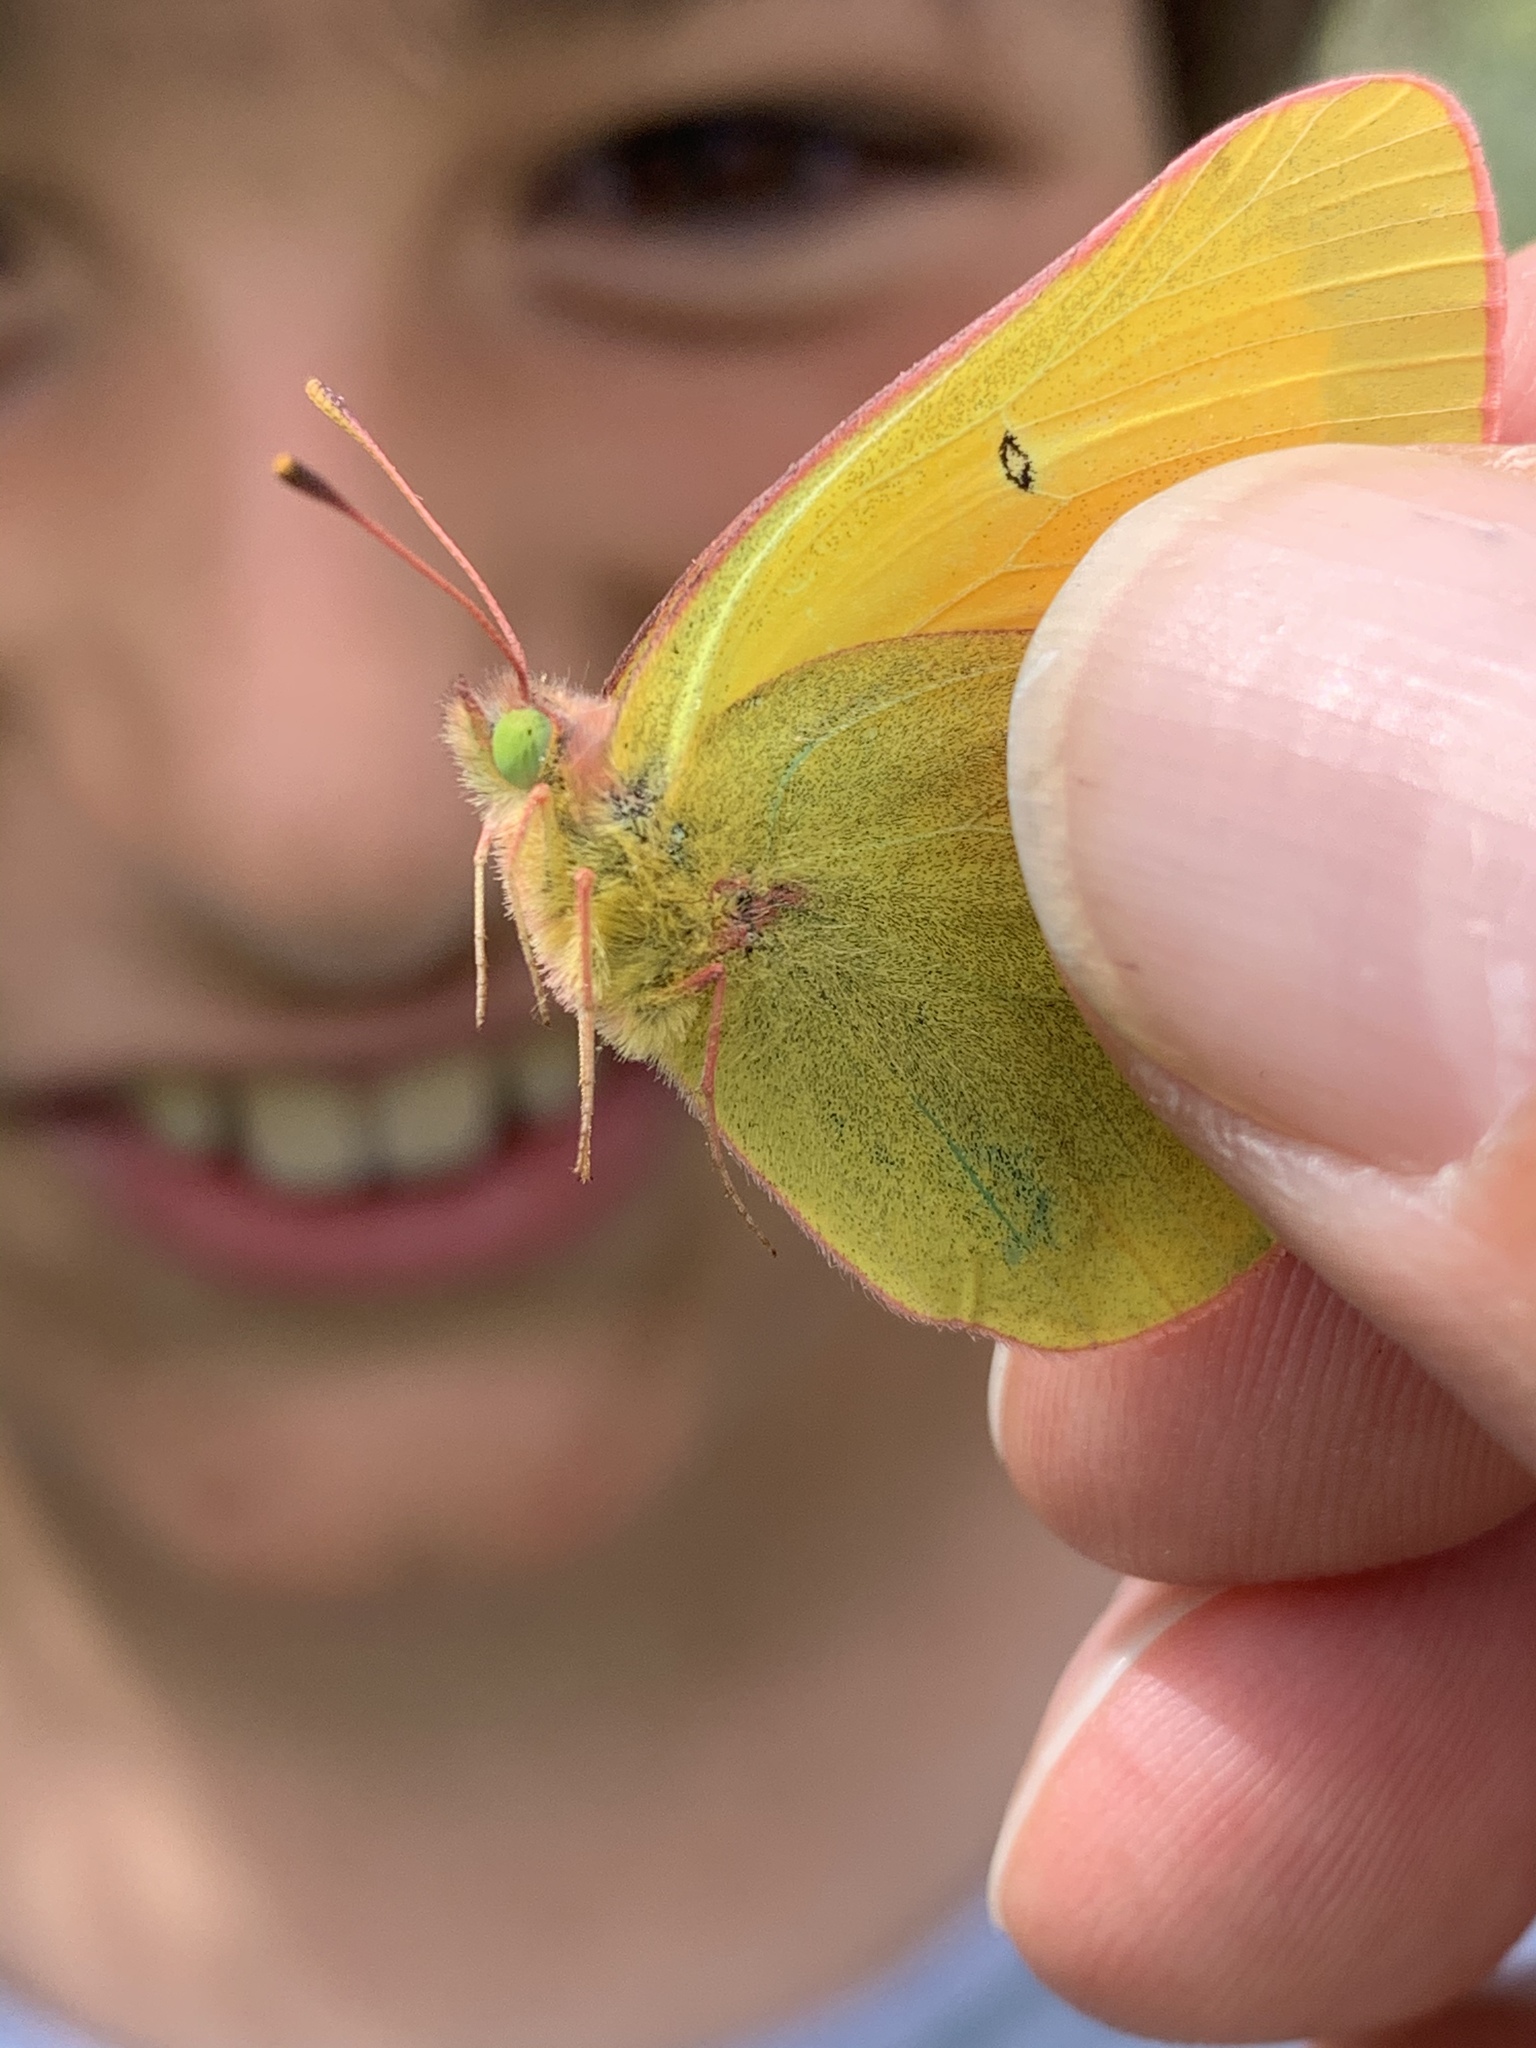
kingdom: Animalia
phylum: Arthropoda
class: Insecta
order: Lepidoptera
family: Pieridae
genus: Colias
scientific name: Colias christina
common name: Christina sulphur
